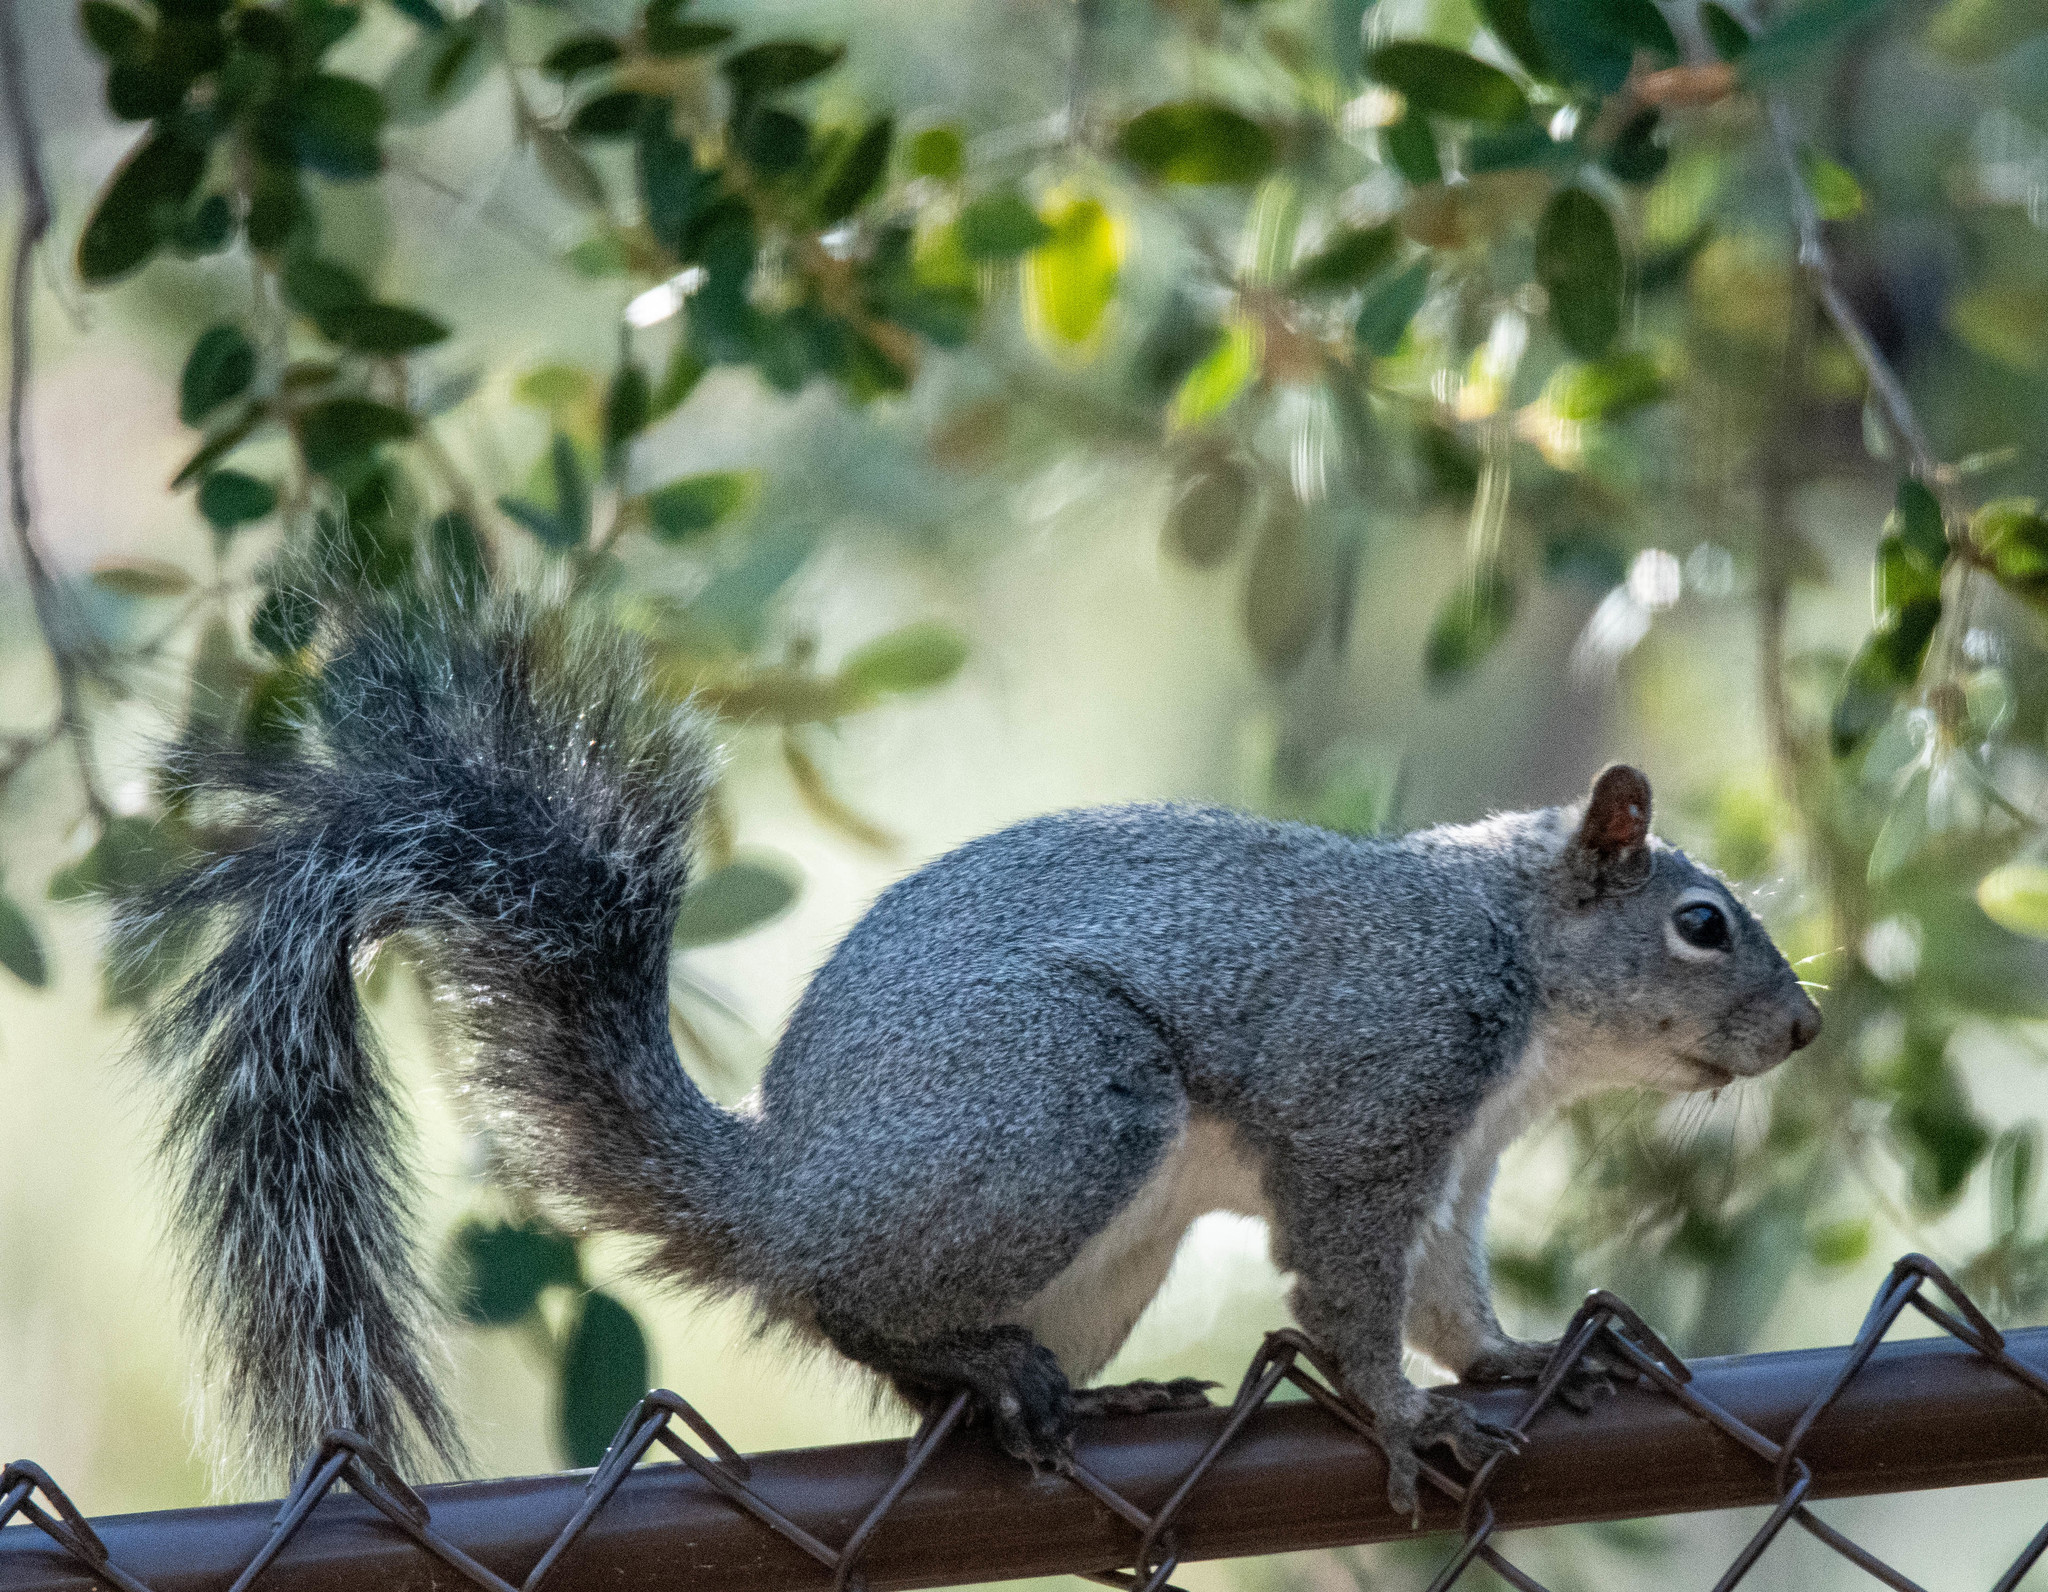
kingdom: Animalia
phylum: Chordata
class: Mammalia
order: Rodentia
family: Sciuridae
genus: Sciurus
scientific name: Sciurus griseus
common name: Western gray squirrel
